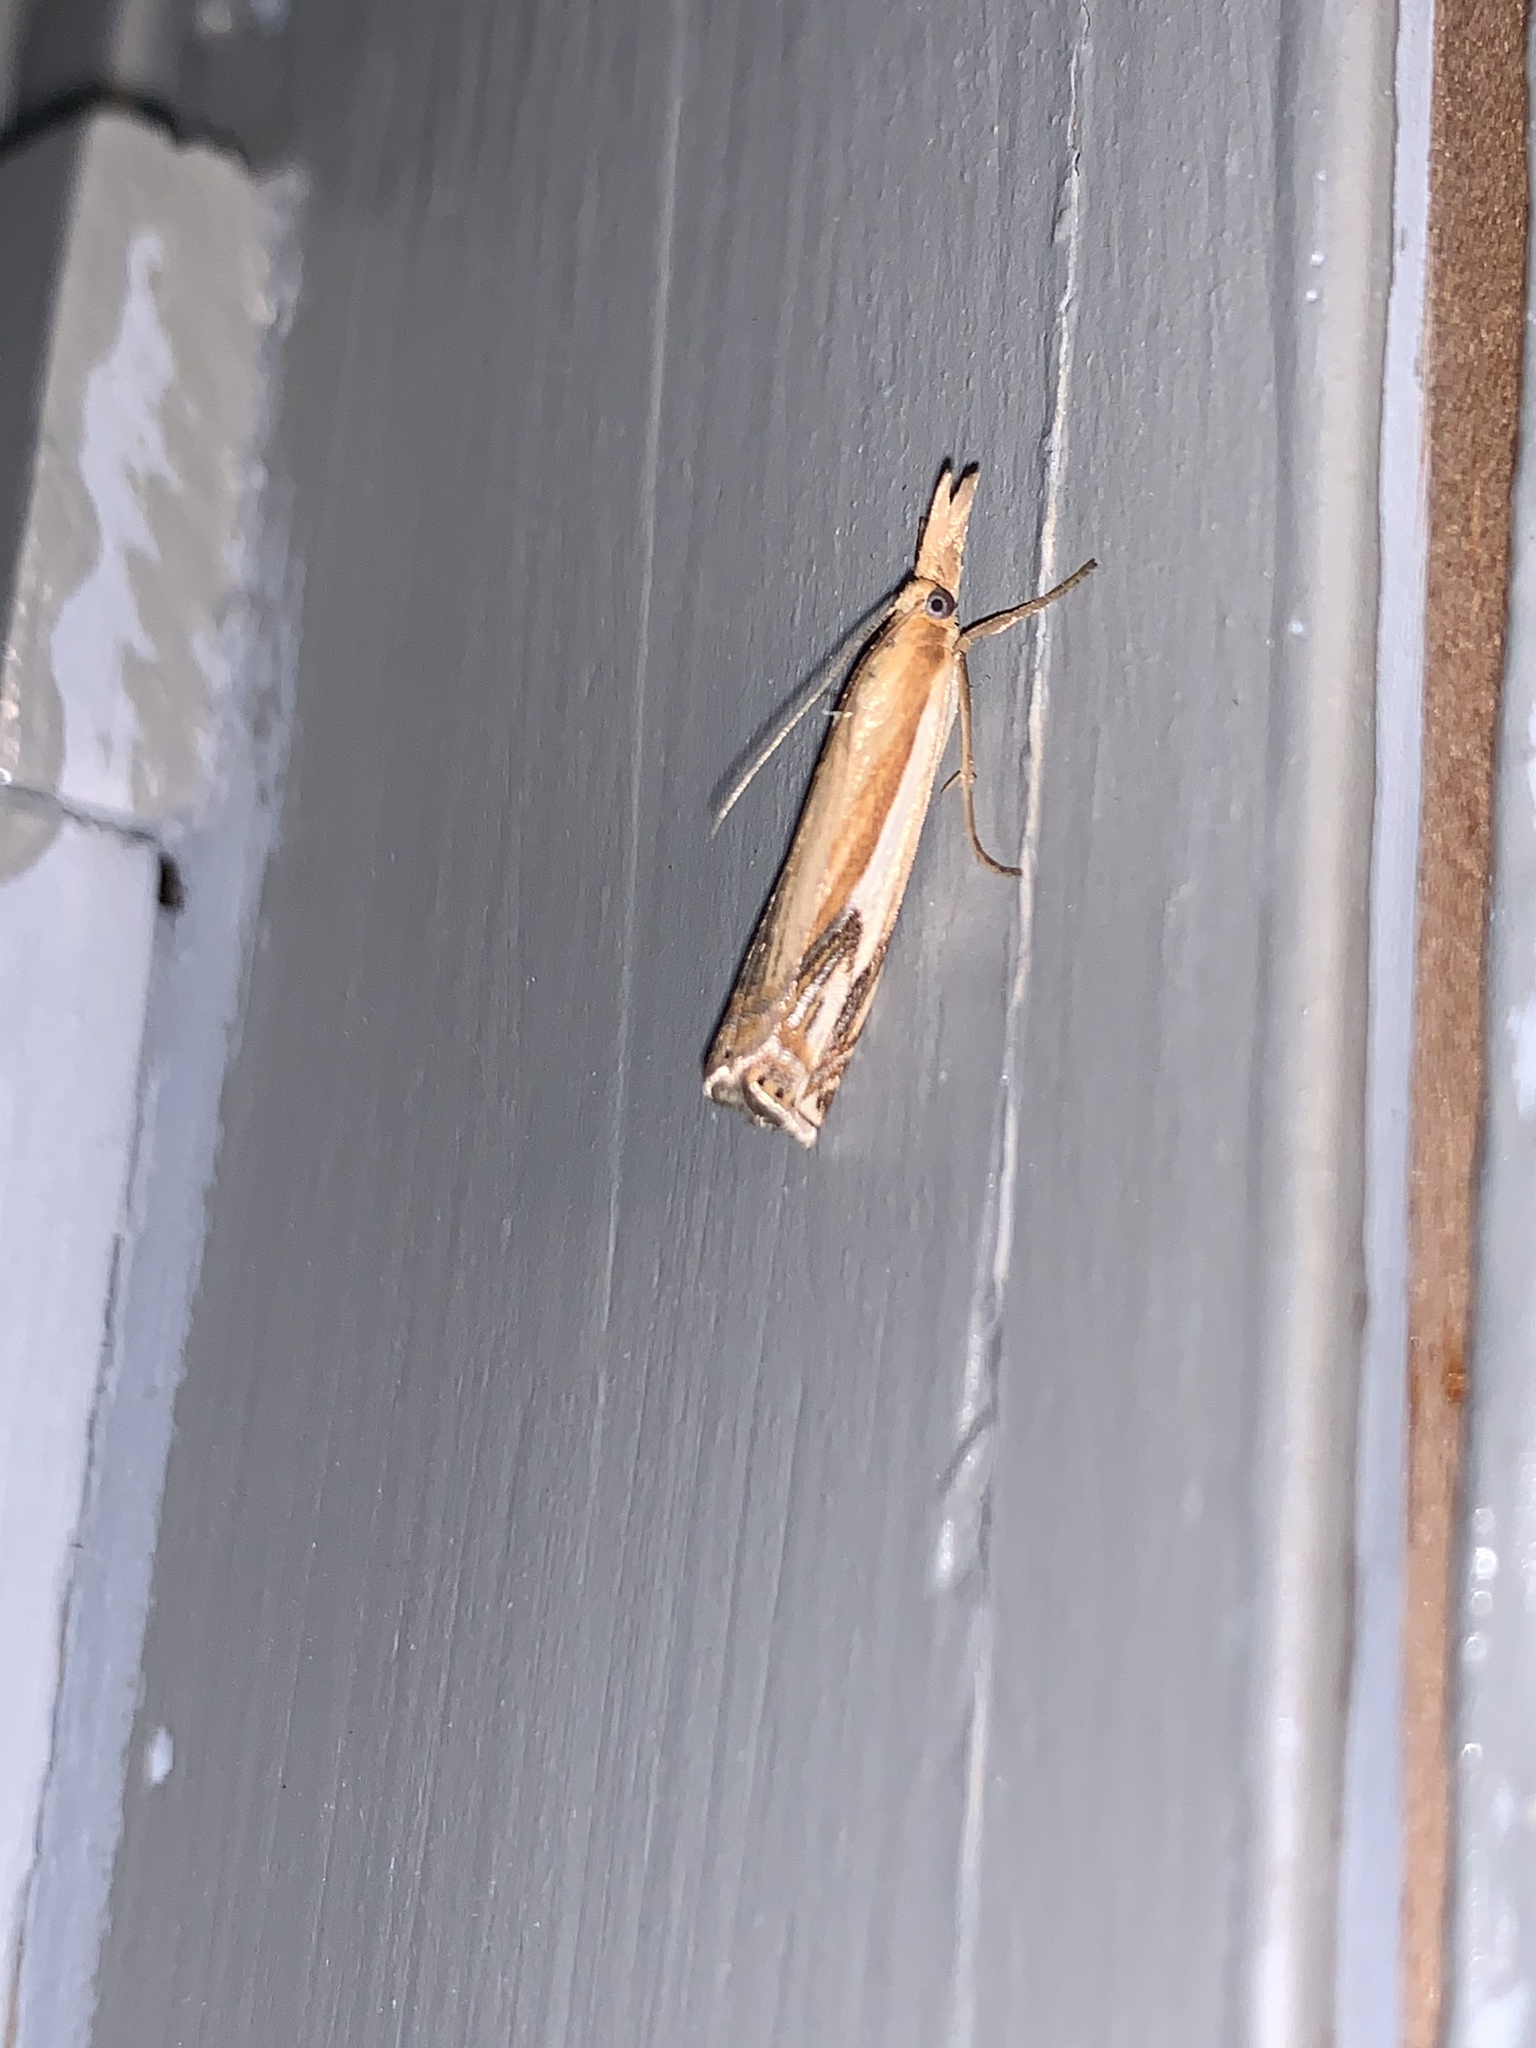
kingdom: Animalia
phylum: Arthropoda
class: Insecta
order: Lepidoptera
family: Crambidae
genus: Crambus
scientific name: Crambus agitatellus
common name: Double-banded grass-veneer
